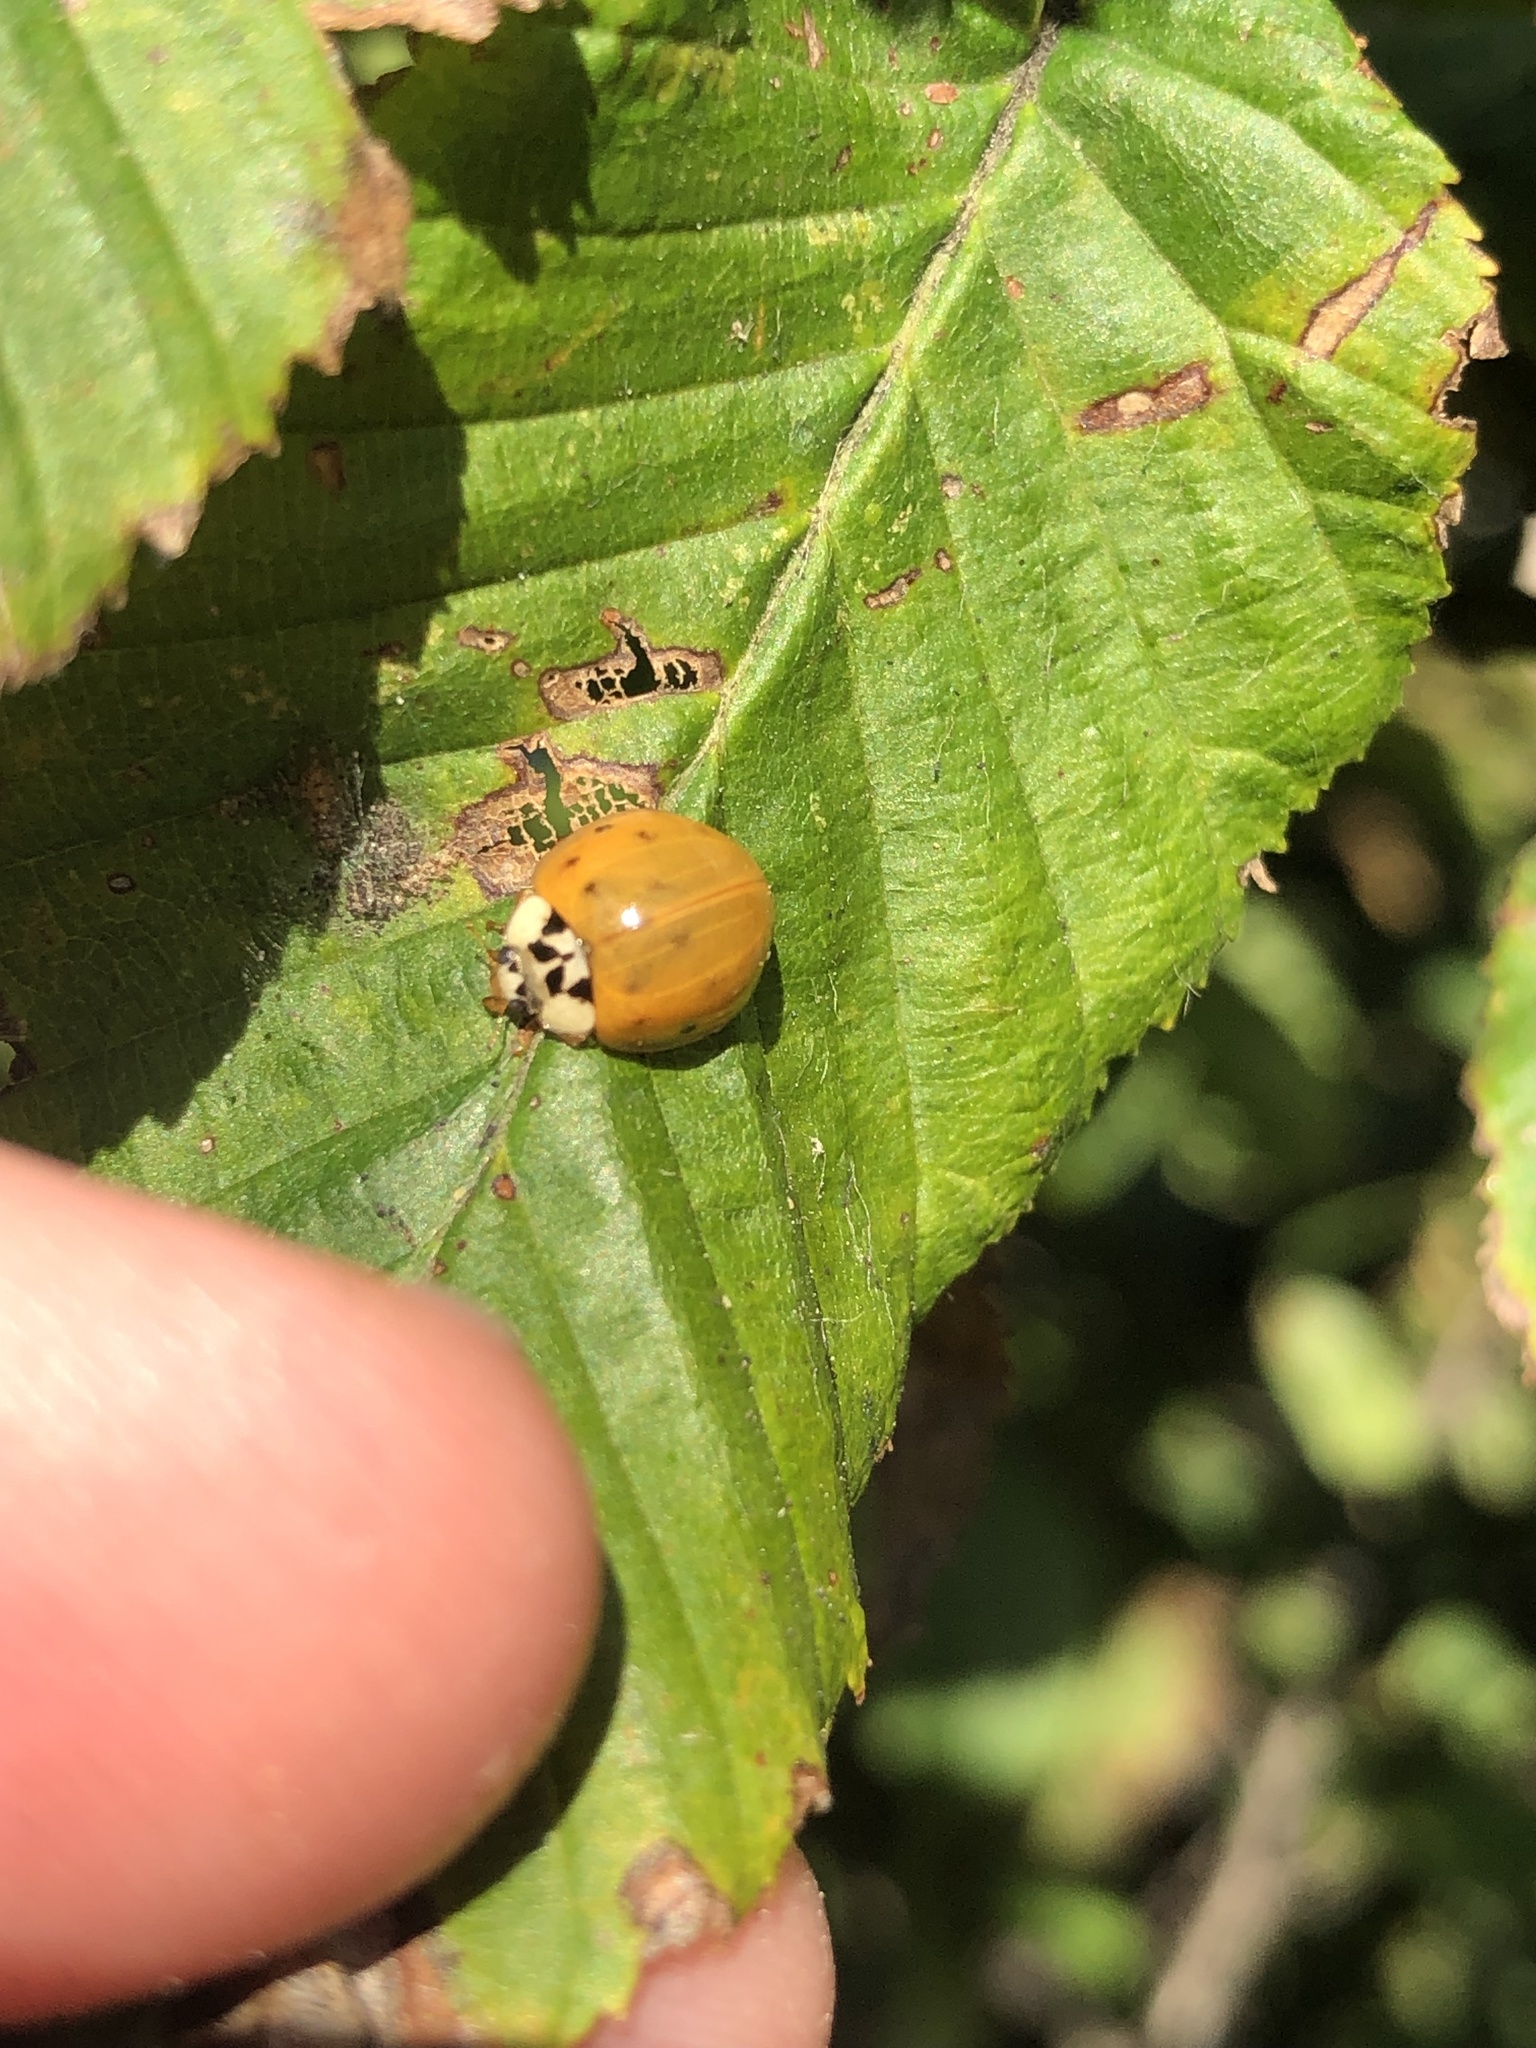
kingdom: Animalia
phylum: Arthropoda
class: Insecta
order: Coleoptera
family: Coccinellidae
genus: Harmonia
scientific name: Harmonia axyridis
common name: Harlequin ladybird
